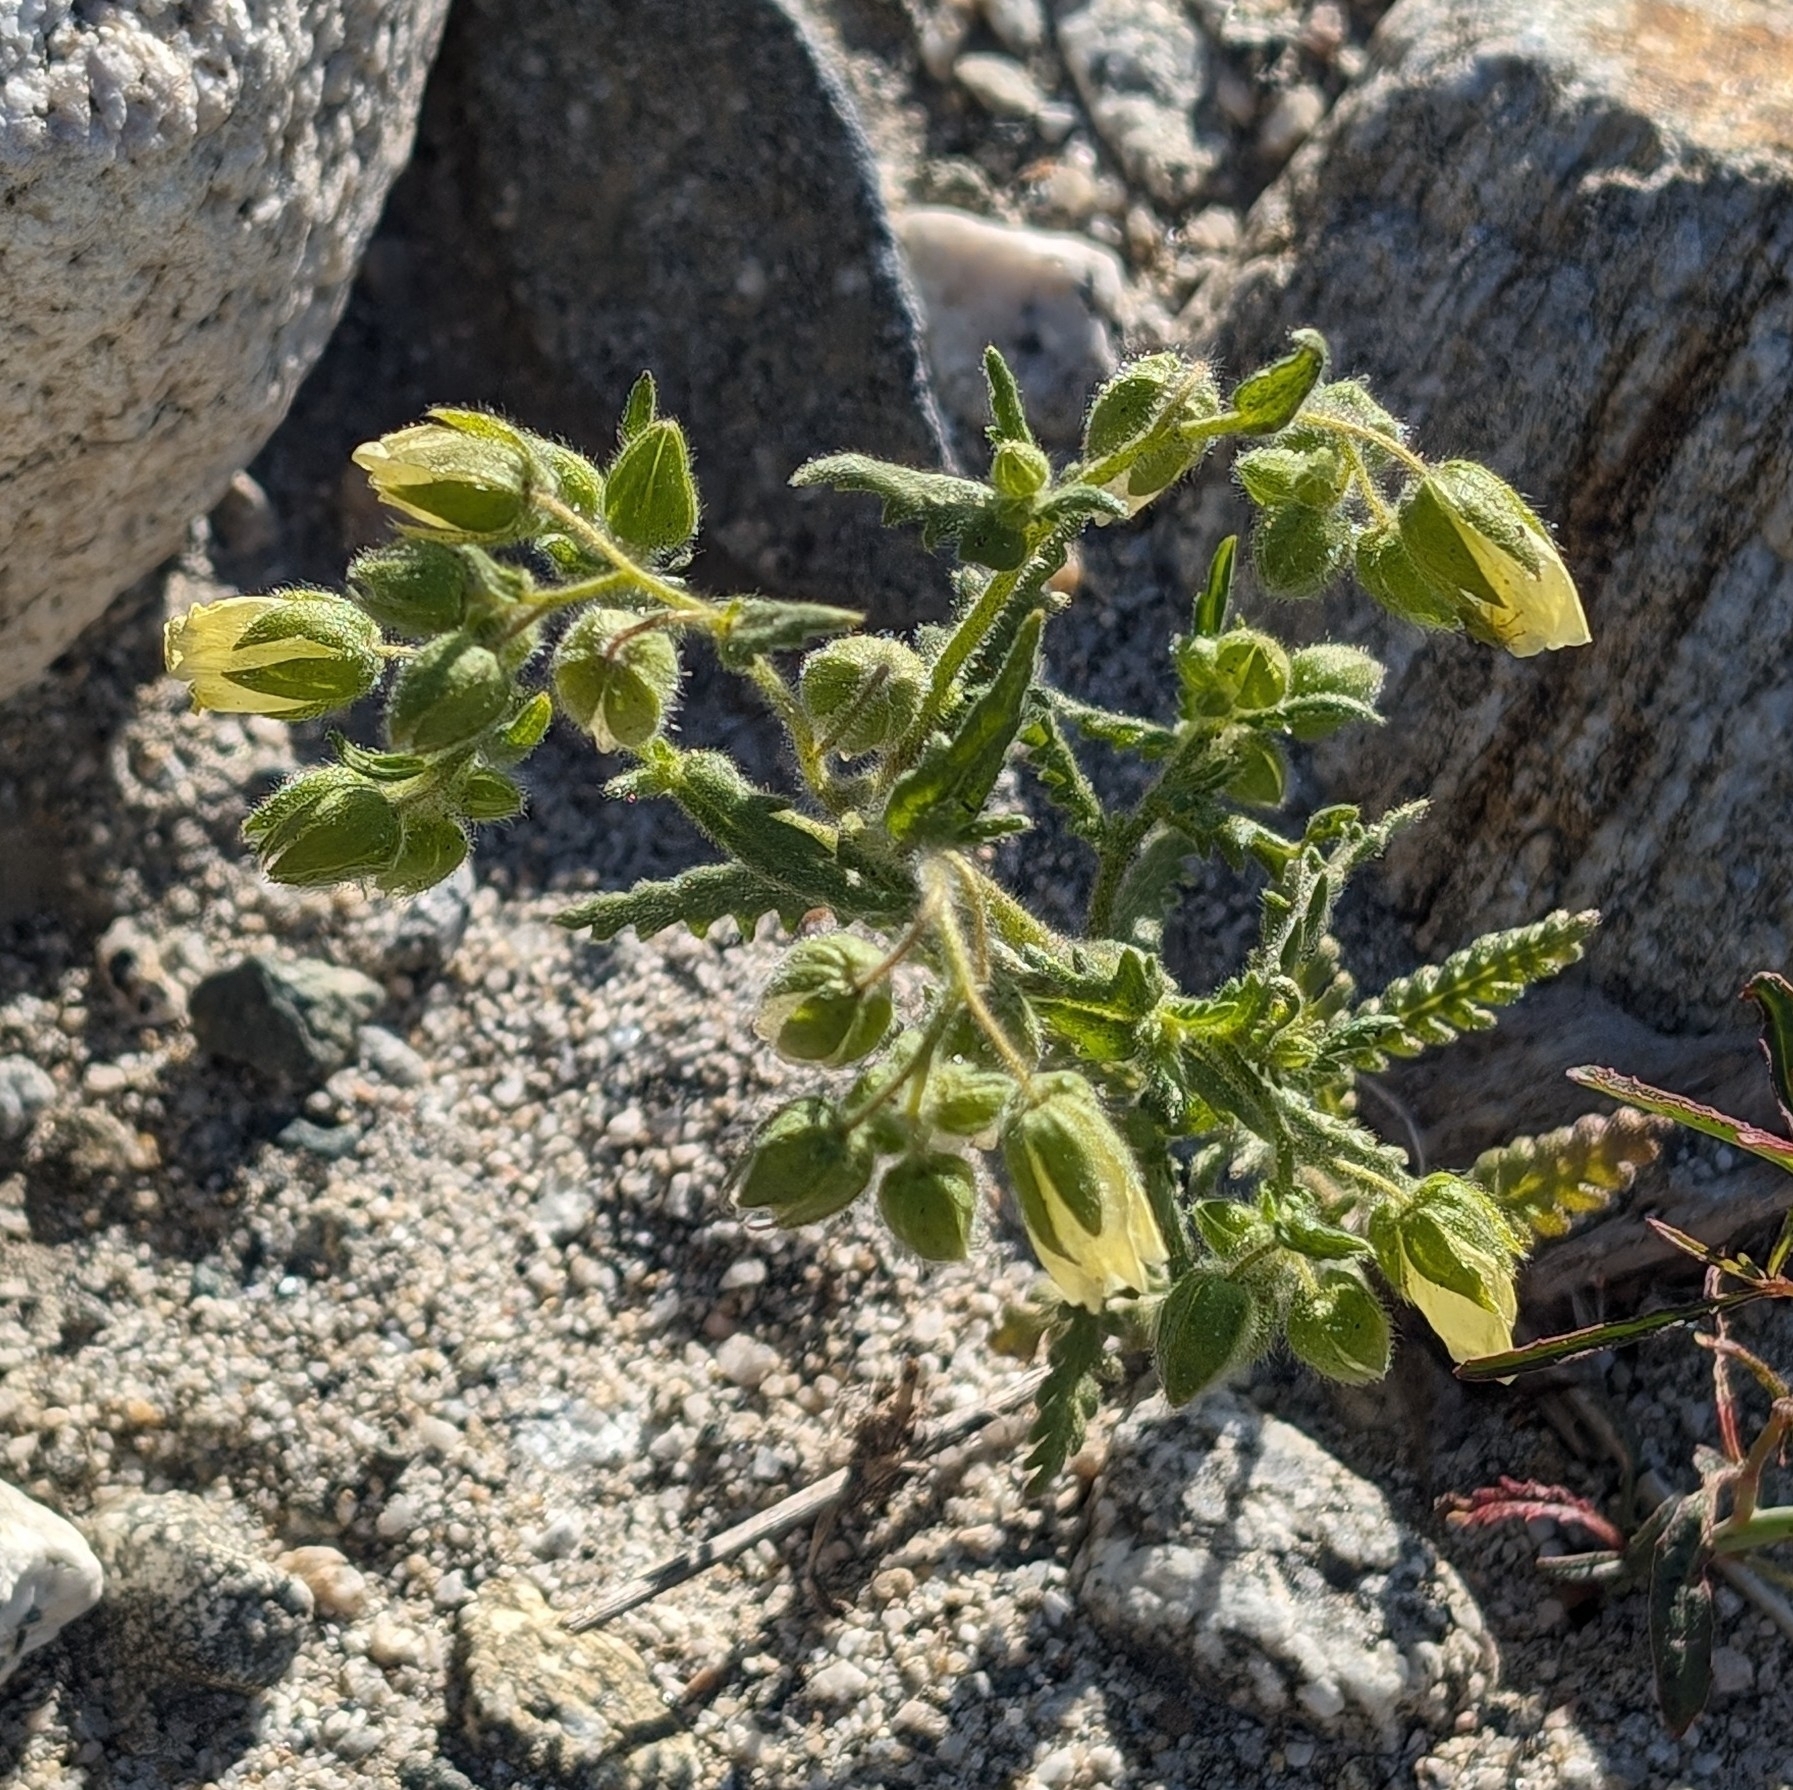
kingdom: Plantae
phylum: Tracheophyta
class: Magnoliopsida
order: Boraginales
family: Hydrophyllaceae
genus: Emmenanthe
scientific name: Emmenanthe penduliflora
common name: Whispering-bells
